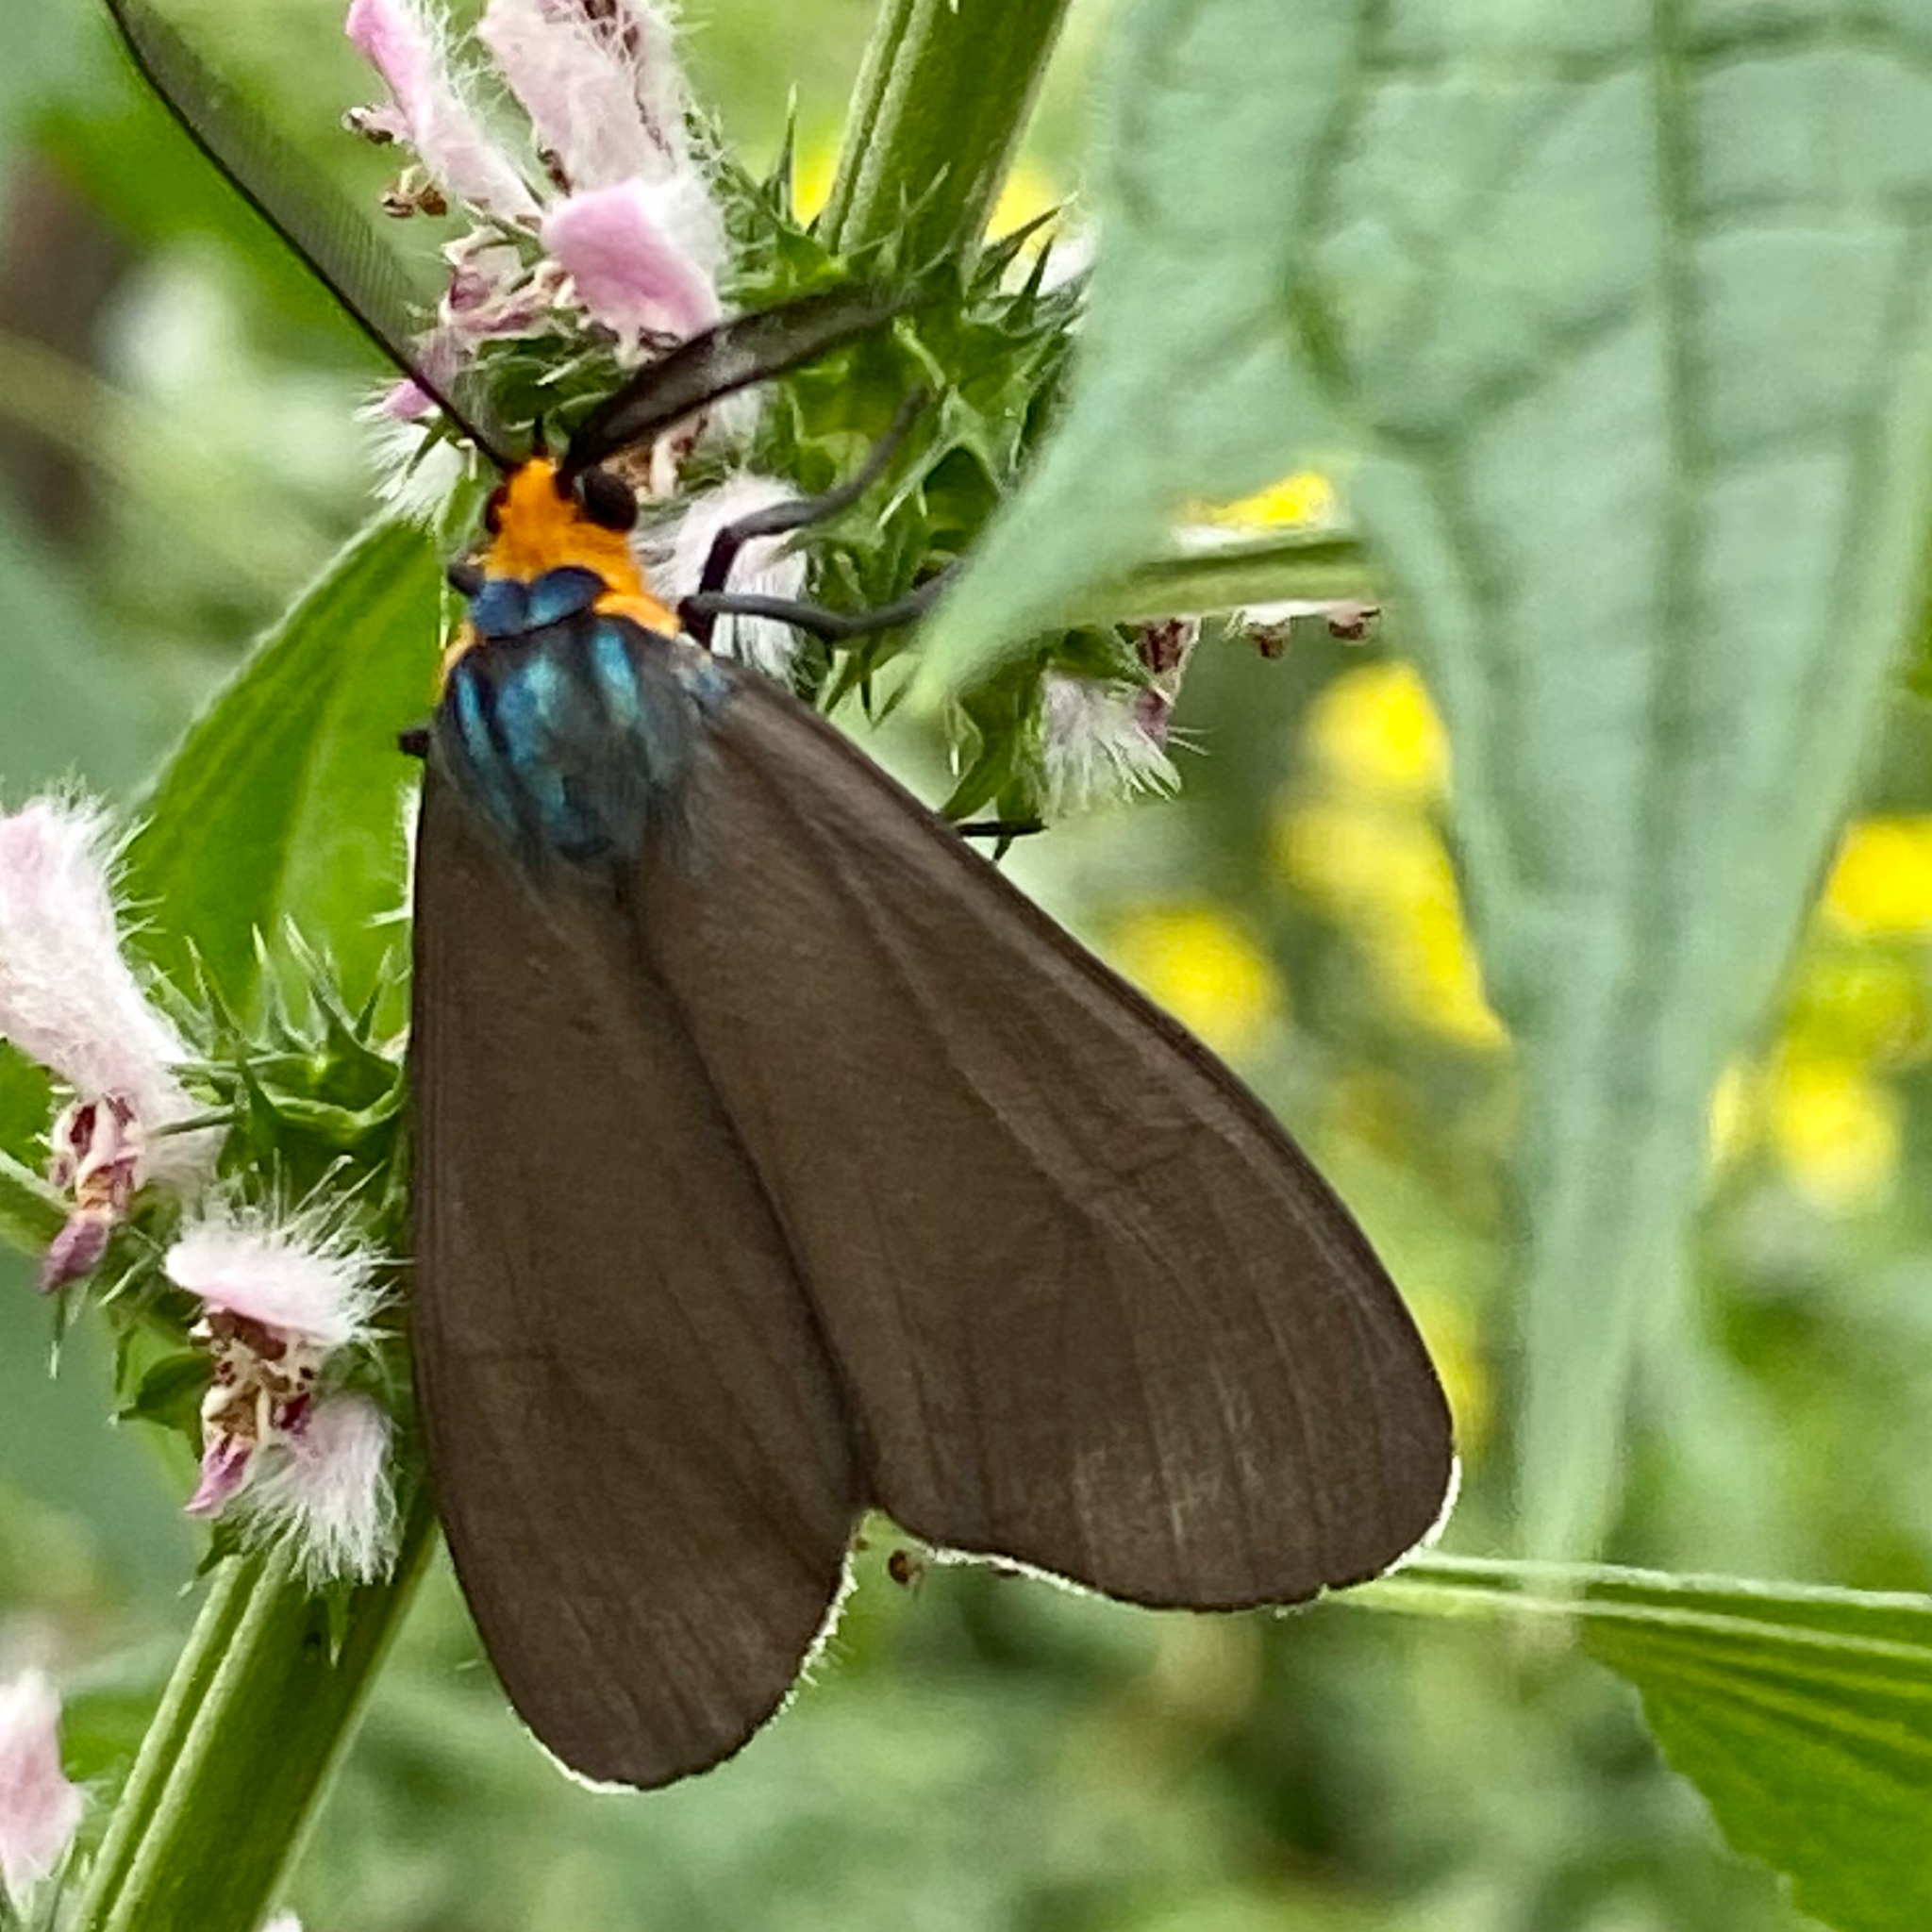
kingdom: Animalia
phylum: Arthropoda
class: Insecta
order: Lepidoptera
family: Erebidae
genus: Ctenucha
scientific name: Ctenucha virginica
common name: Virginia ctenucha moth
